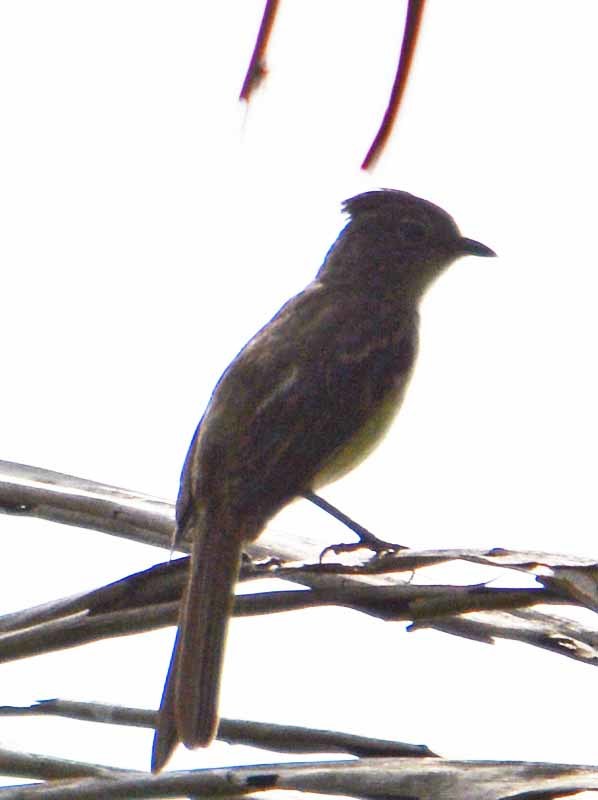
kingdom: Animalia
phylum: Chordata
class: Aves
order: Passeriformes
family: Tyrannidae
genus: Elaenia
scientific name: Elaenia flavogaster
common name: Yellow-bellied elaenia
